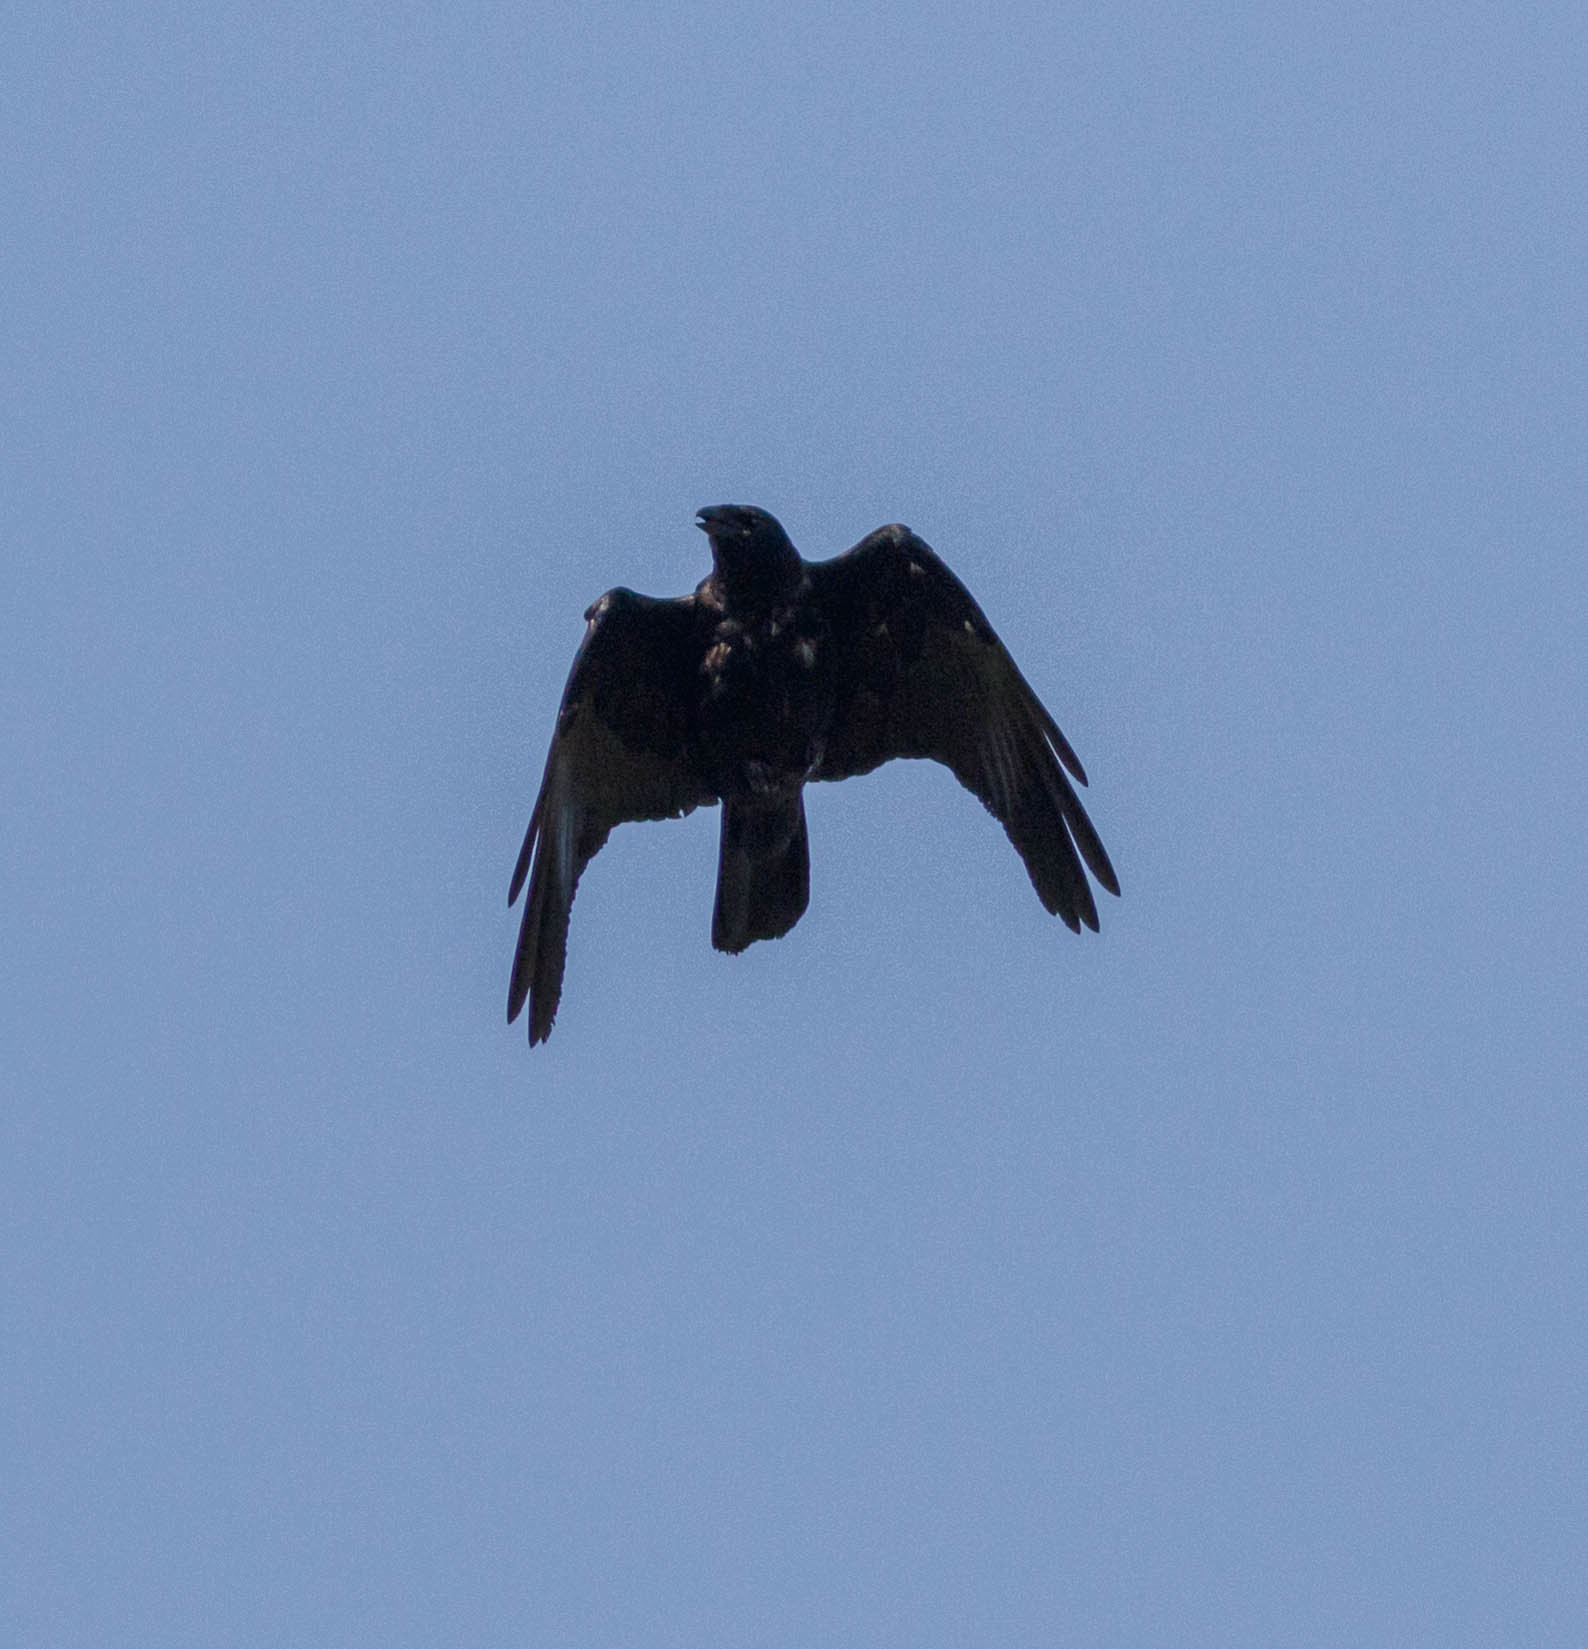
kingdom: Animalia
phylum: Chordata
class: Aves
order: Passeriformes
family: Corvidae
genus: Corvus
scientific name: Corvus ossifragus
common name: Fish crow
